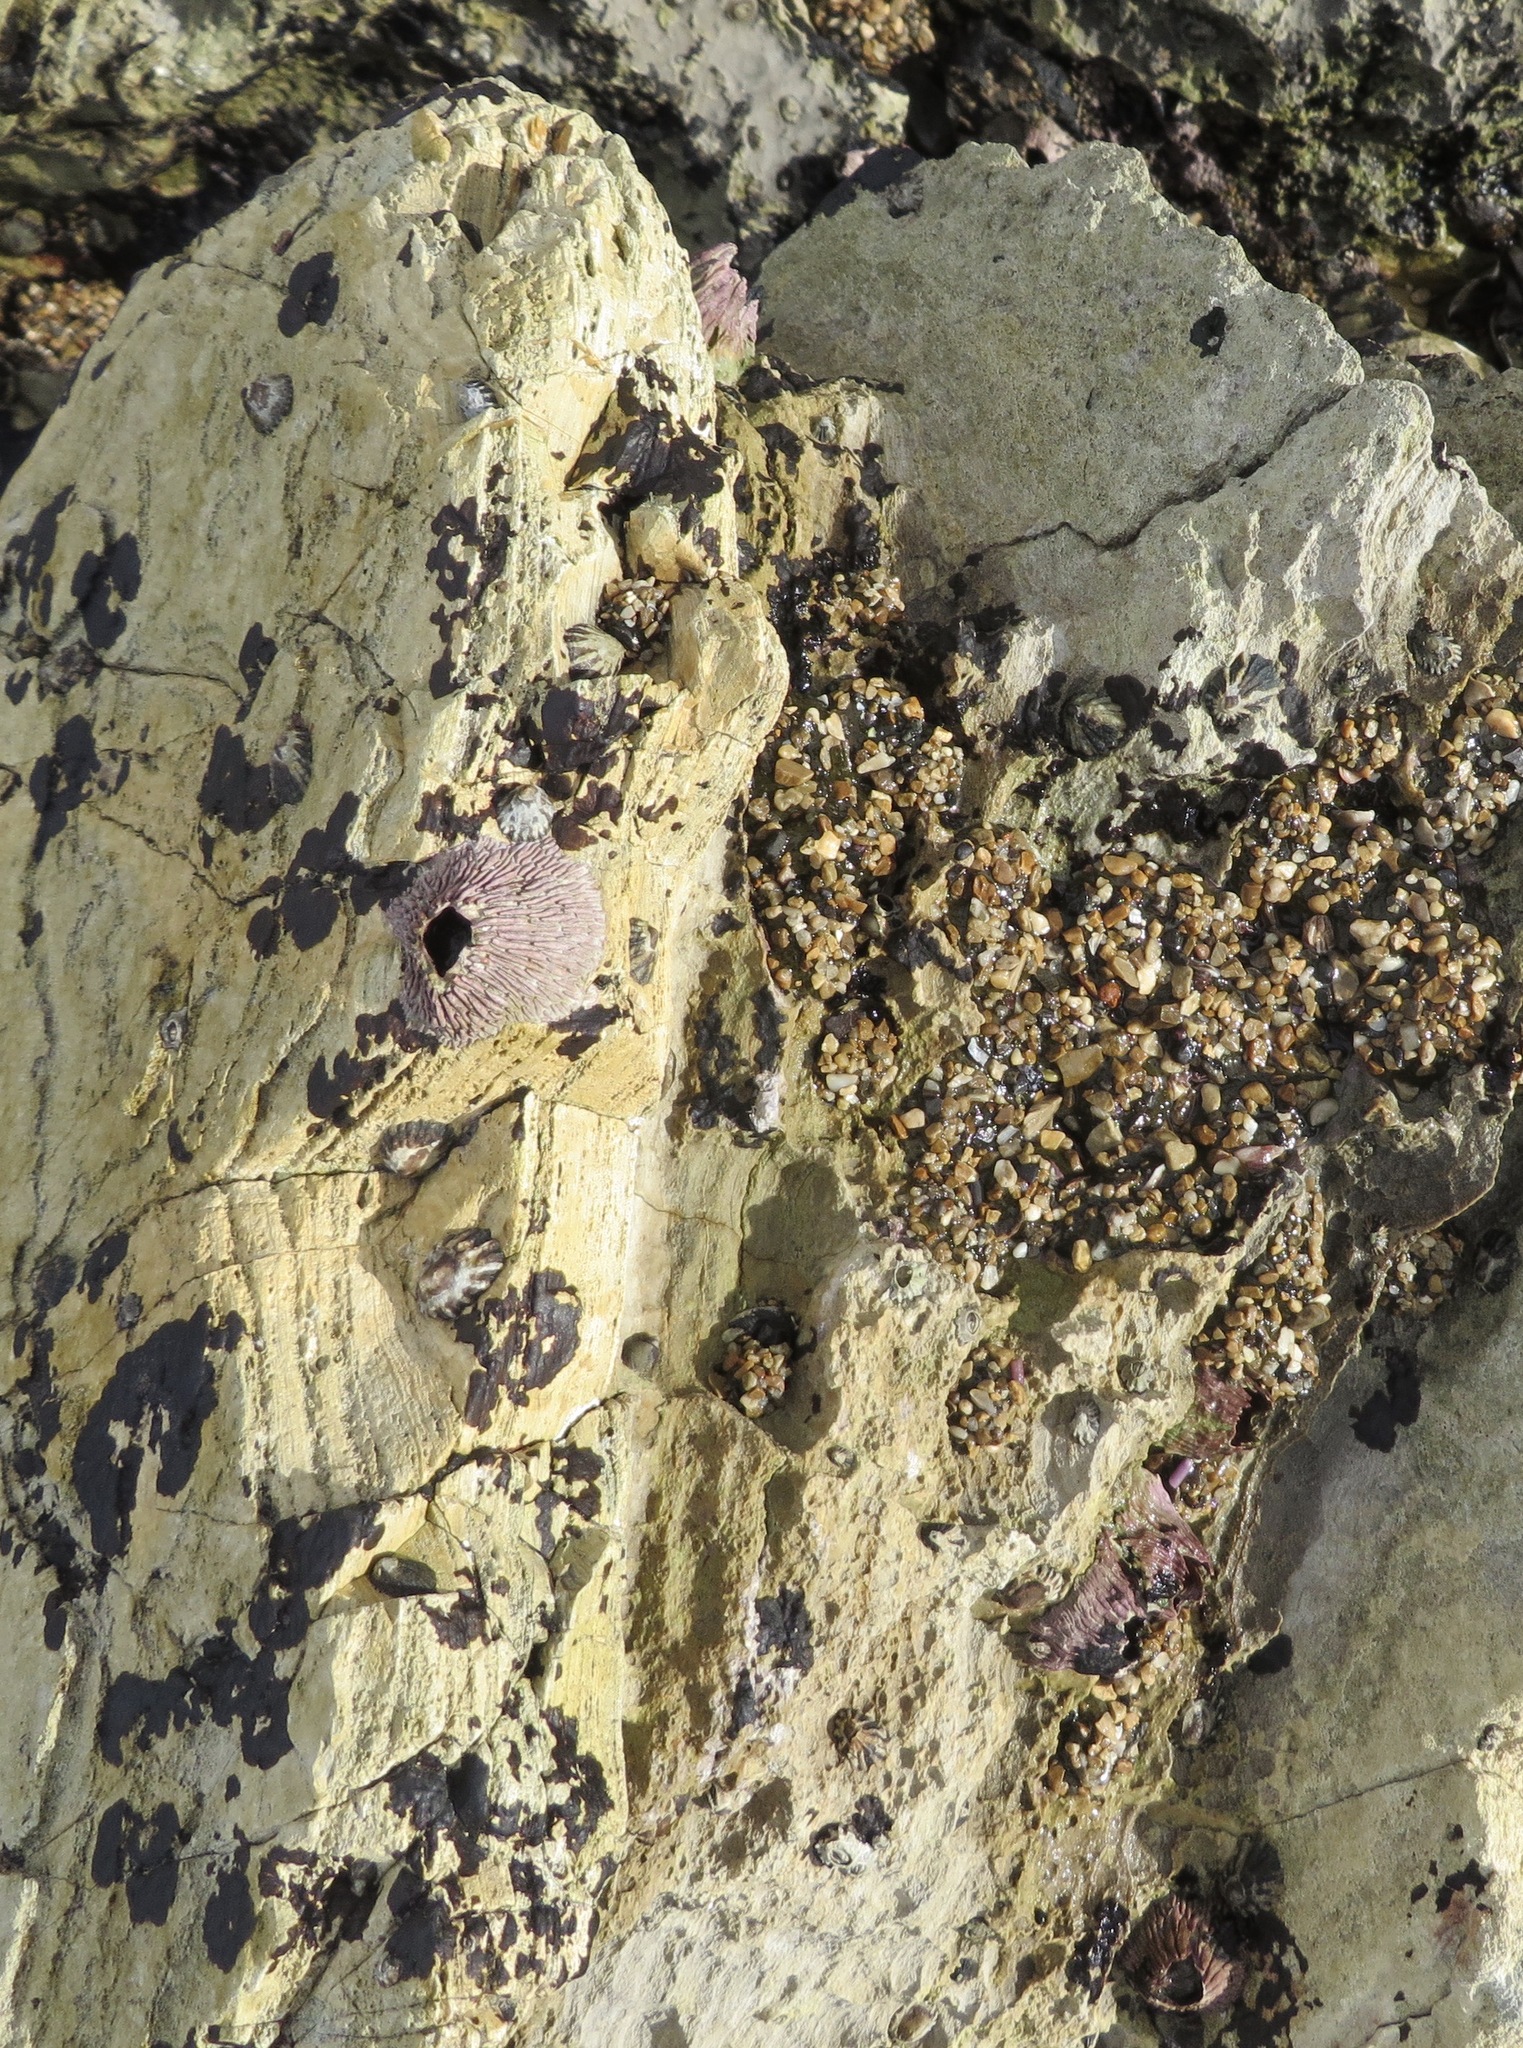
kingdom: Animalia
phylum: Arthropoda
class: Maxillopoda
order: Sessilia
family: Tetraclitidae
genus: Tetraclita
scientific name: Tetraclita rubescens
